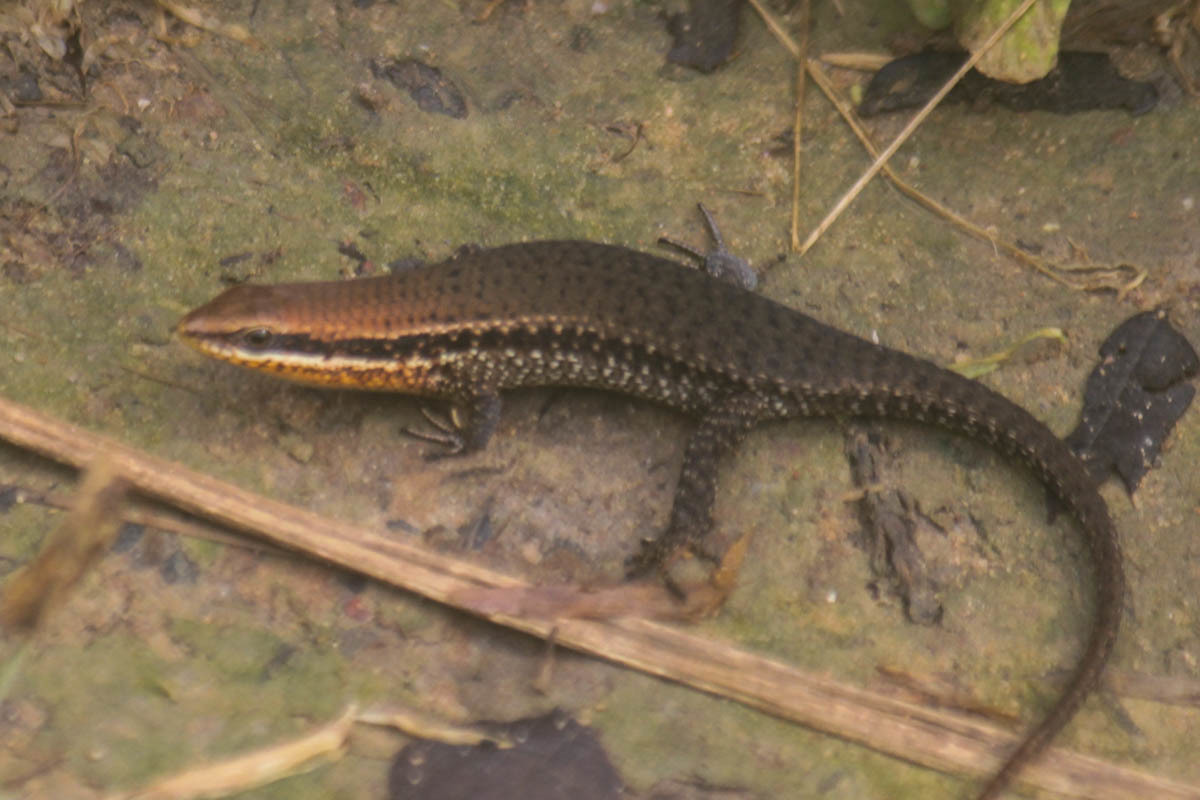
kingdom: Animalia
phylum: Chordata
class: Squamata
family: Scincidae
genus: Eutropis
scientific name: Eutropis macularia
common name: Bronze mabuya
